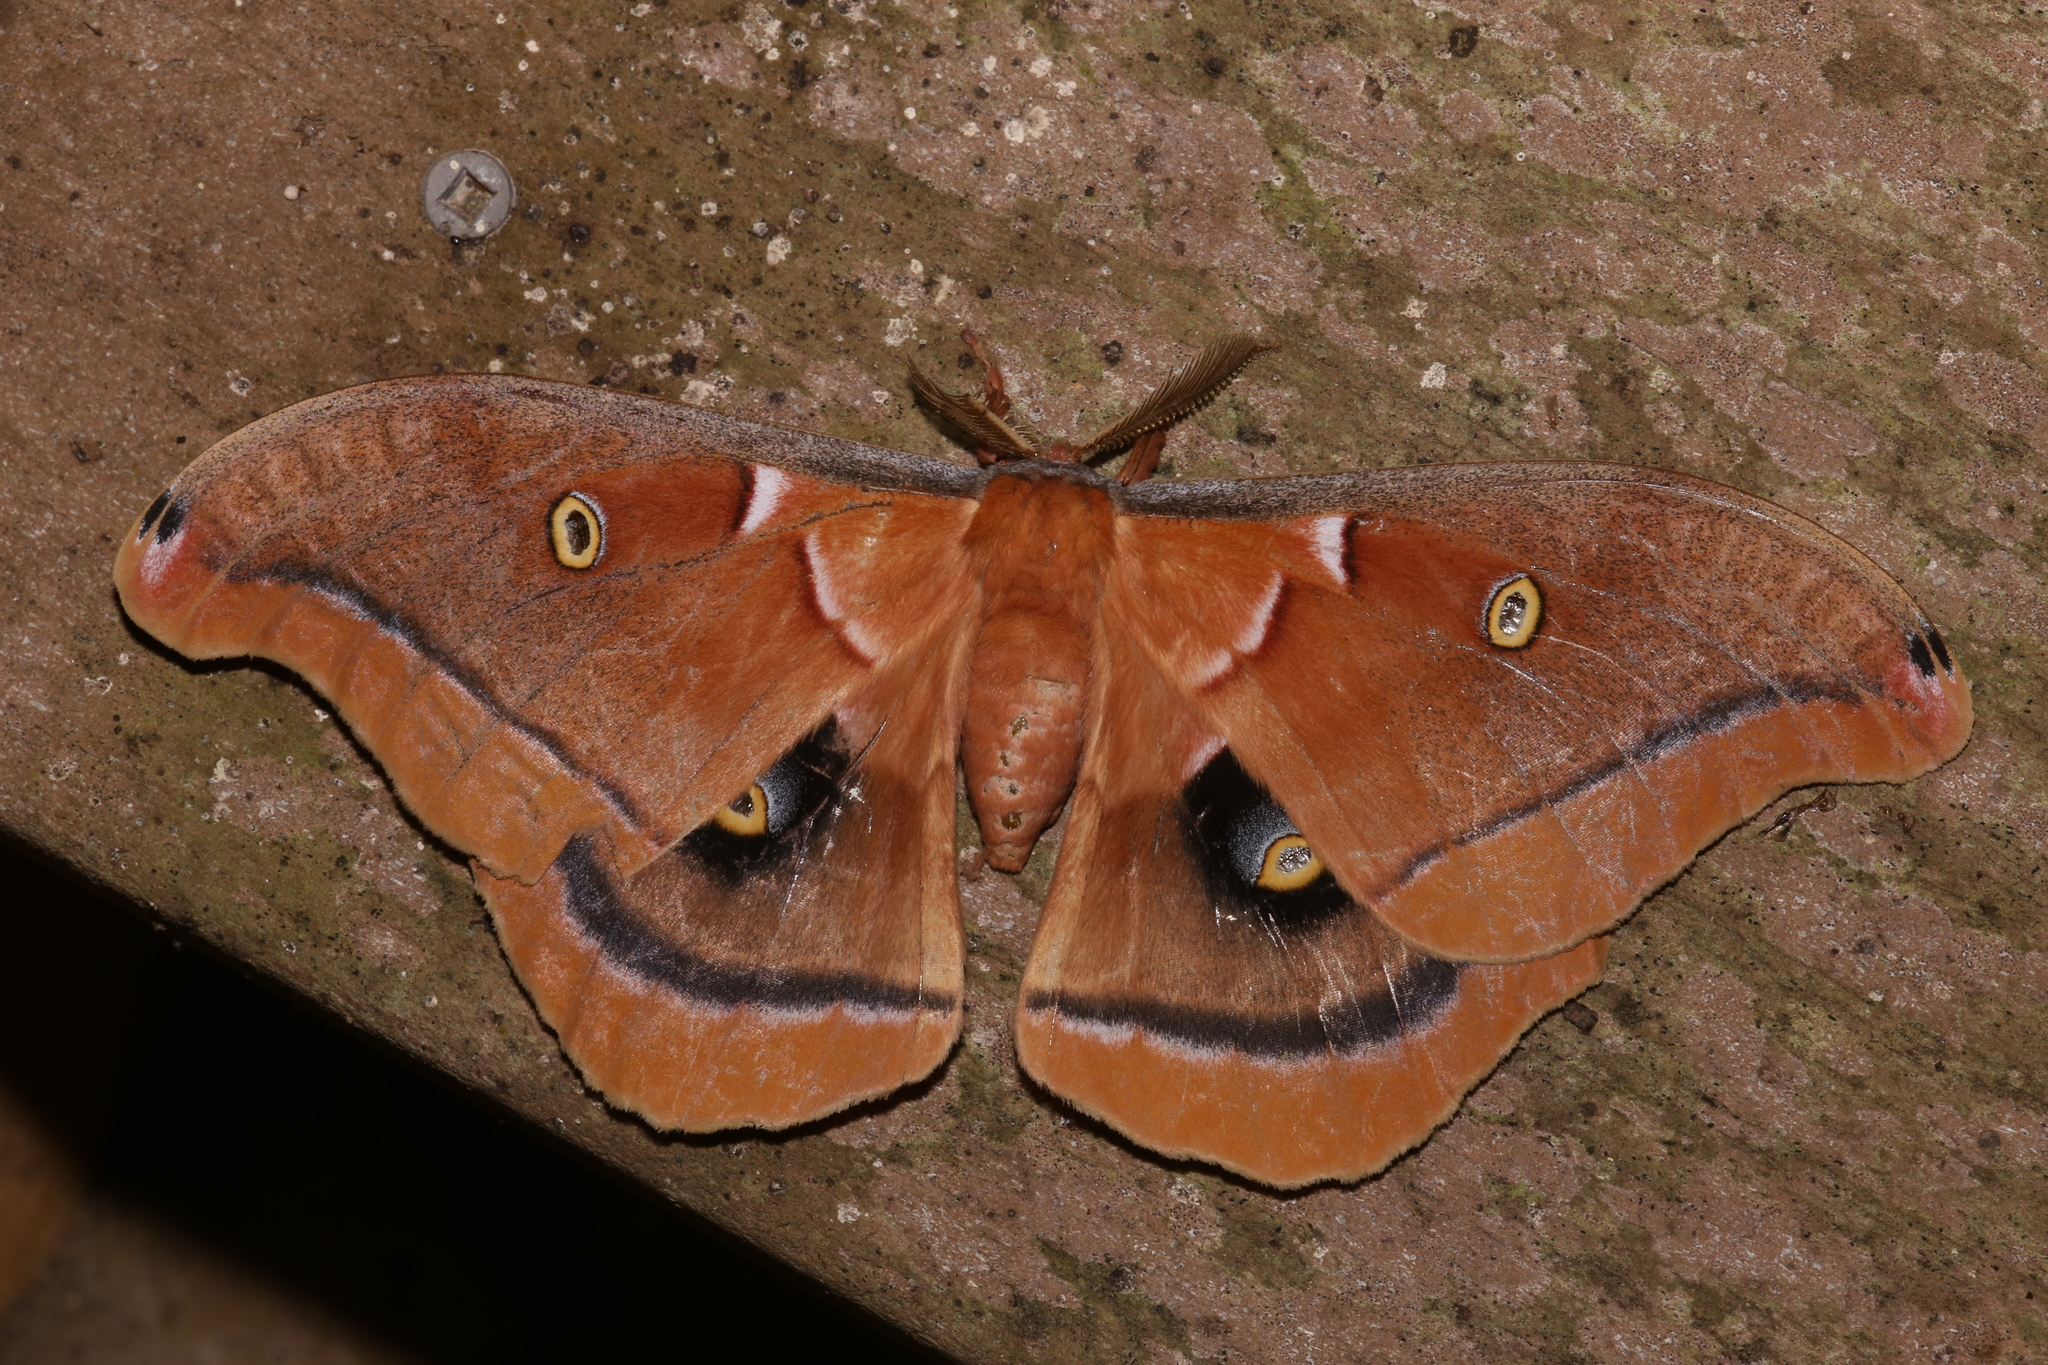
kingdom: Animalia
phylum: Arthropoda
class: Insecta
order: Lepidoptera
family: Saturniidae
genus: Antheraea
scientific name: Antheraea polyphemus
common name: Polyphemus moth
